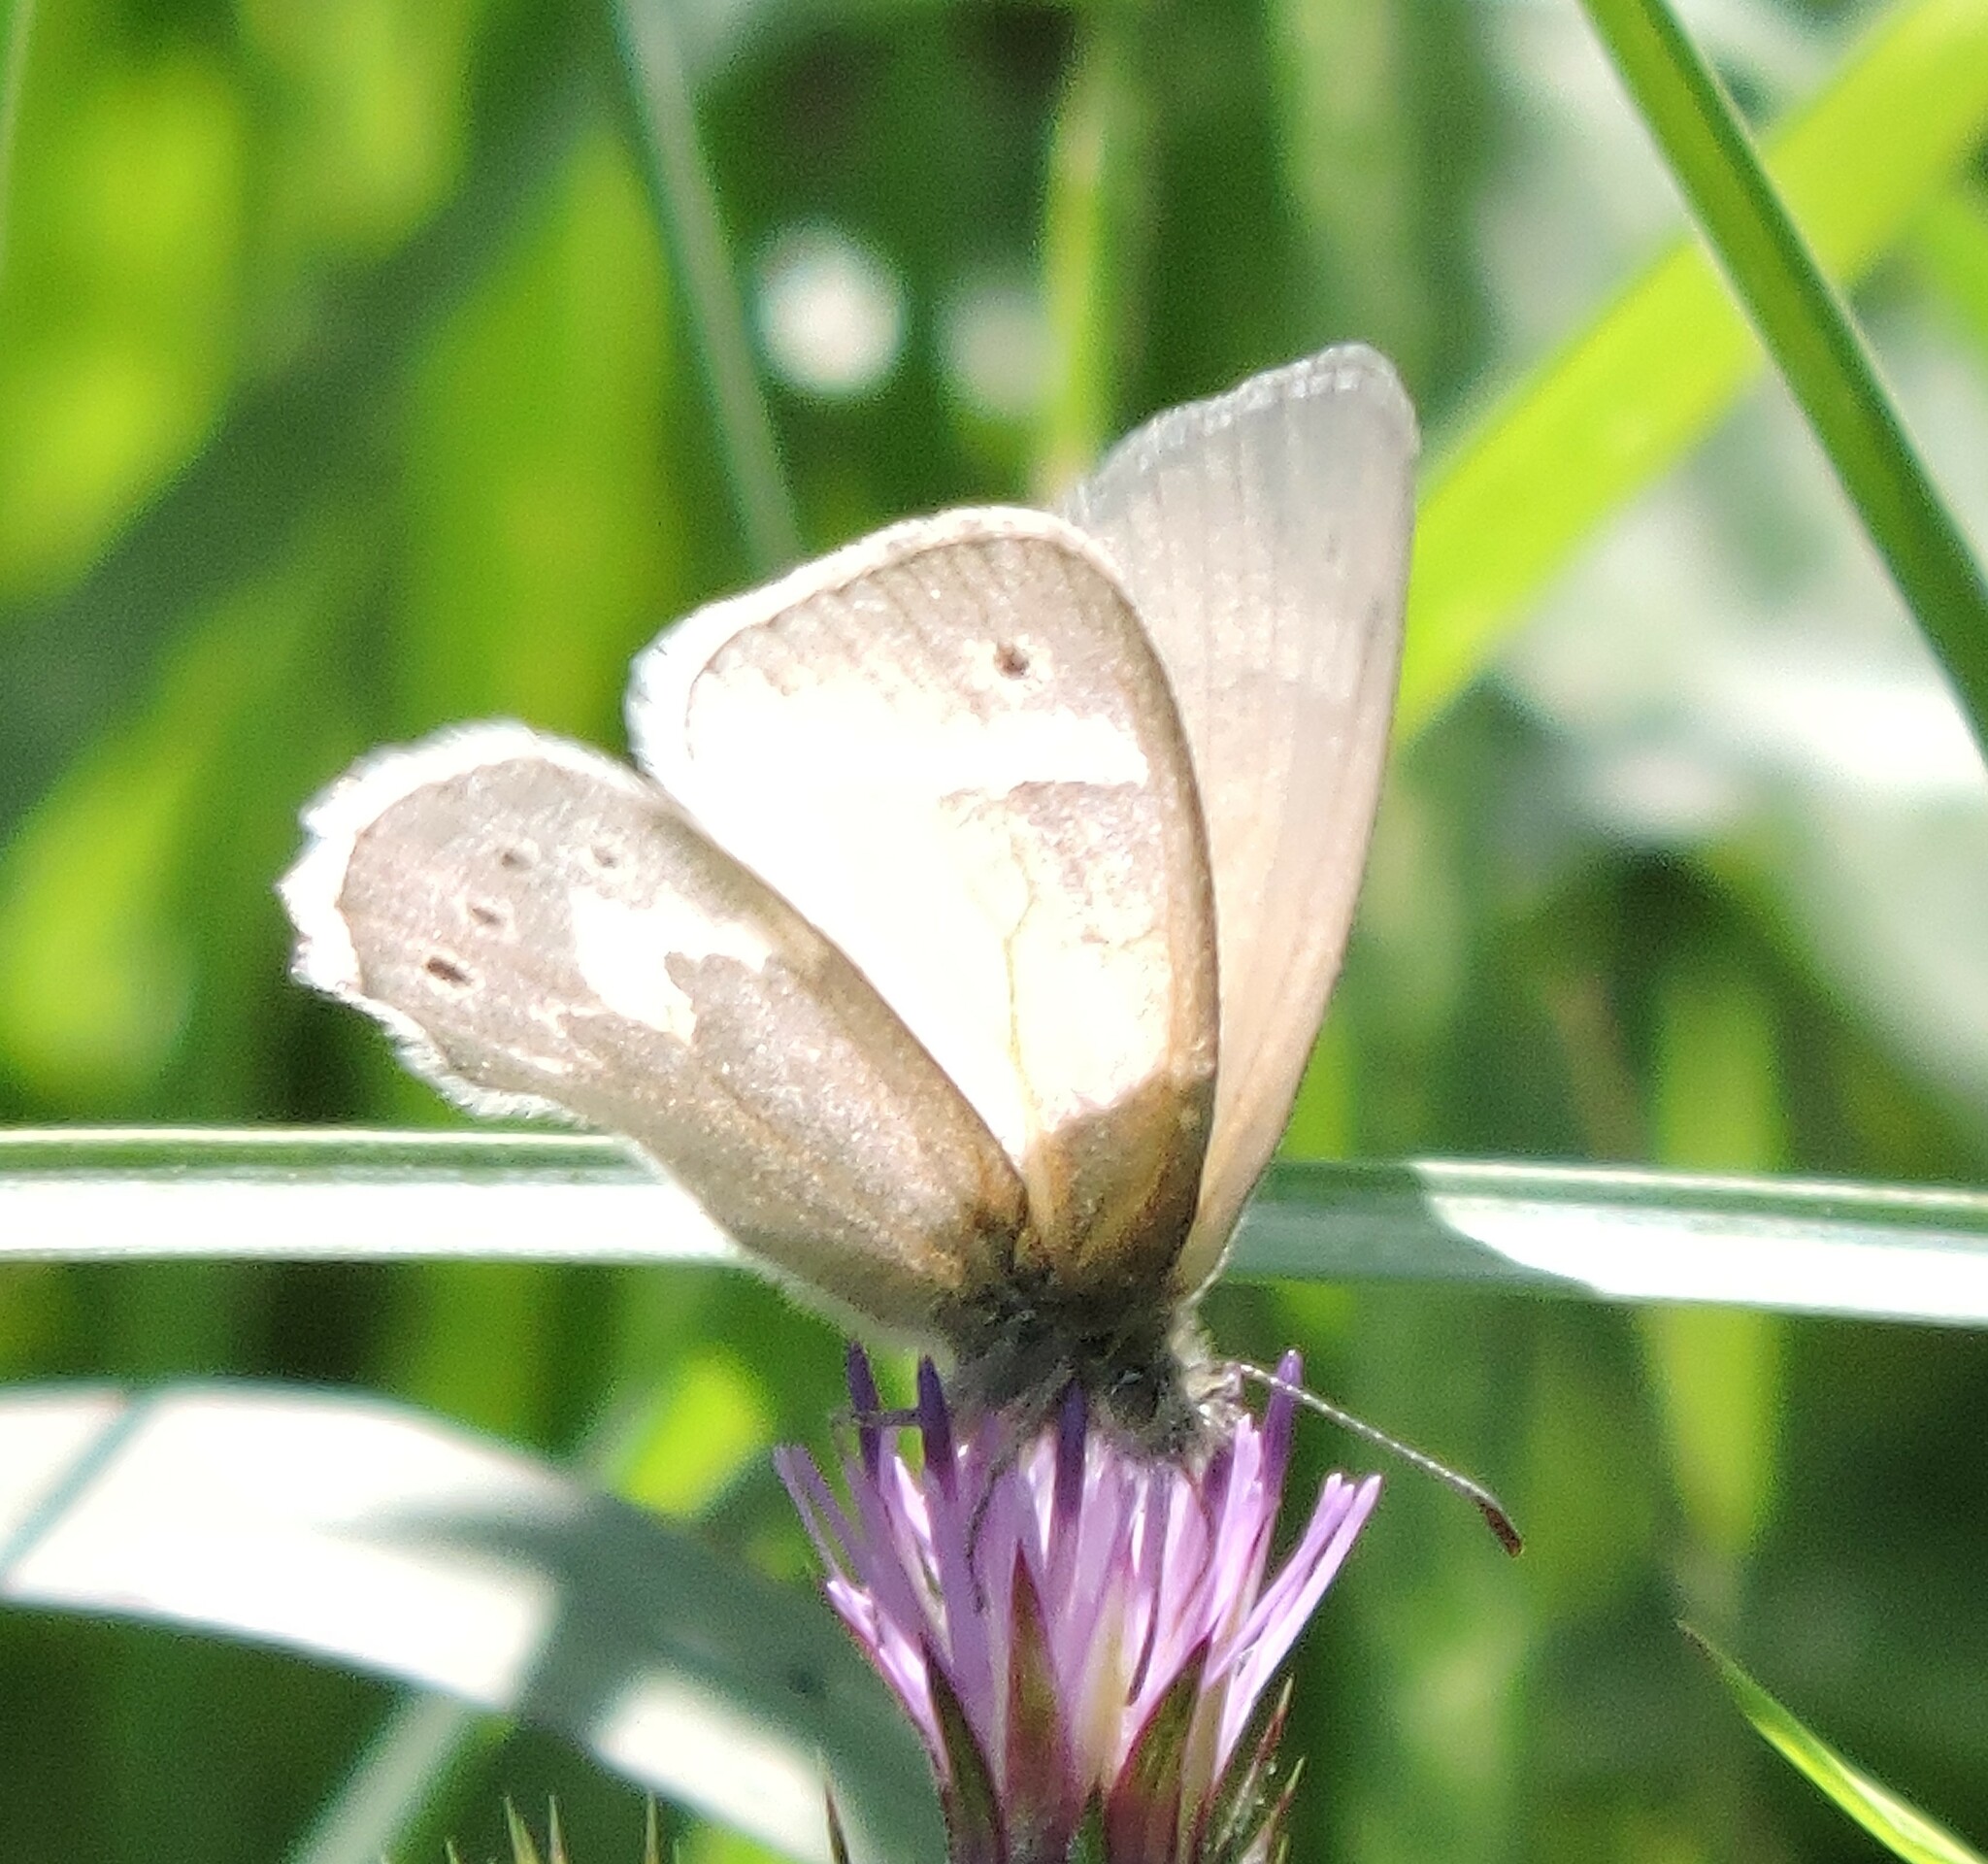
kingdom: Animalia
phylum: Arthropoda
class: Insecta
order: Lepidoptera
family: Nymphalidae
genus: Coenonympha
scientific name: Coenonympha california
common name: Common ringlet
